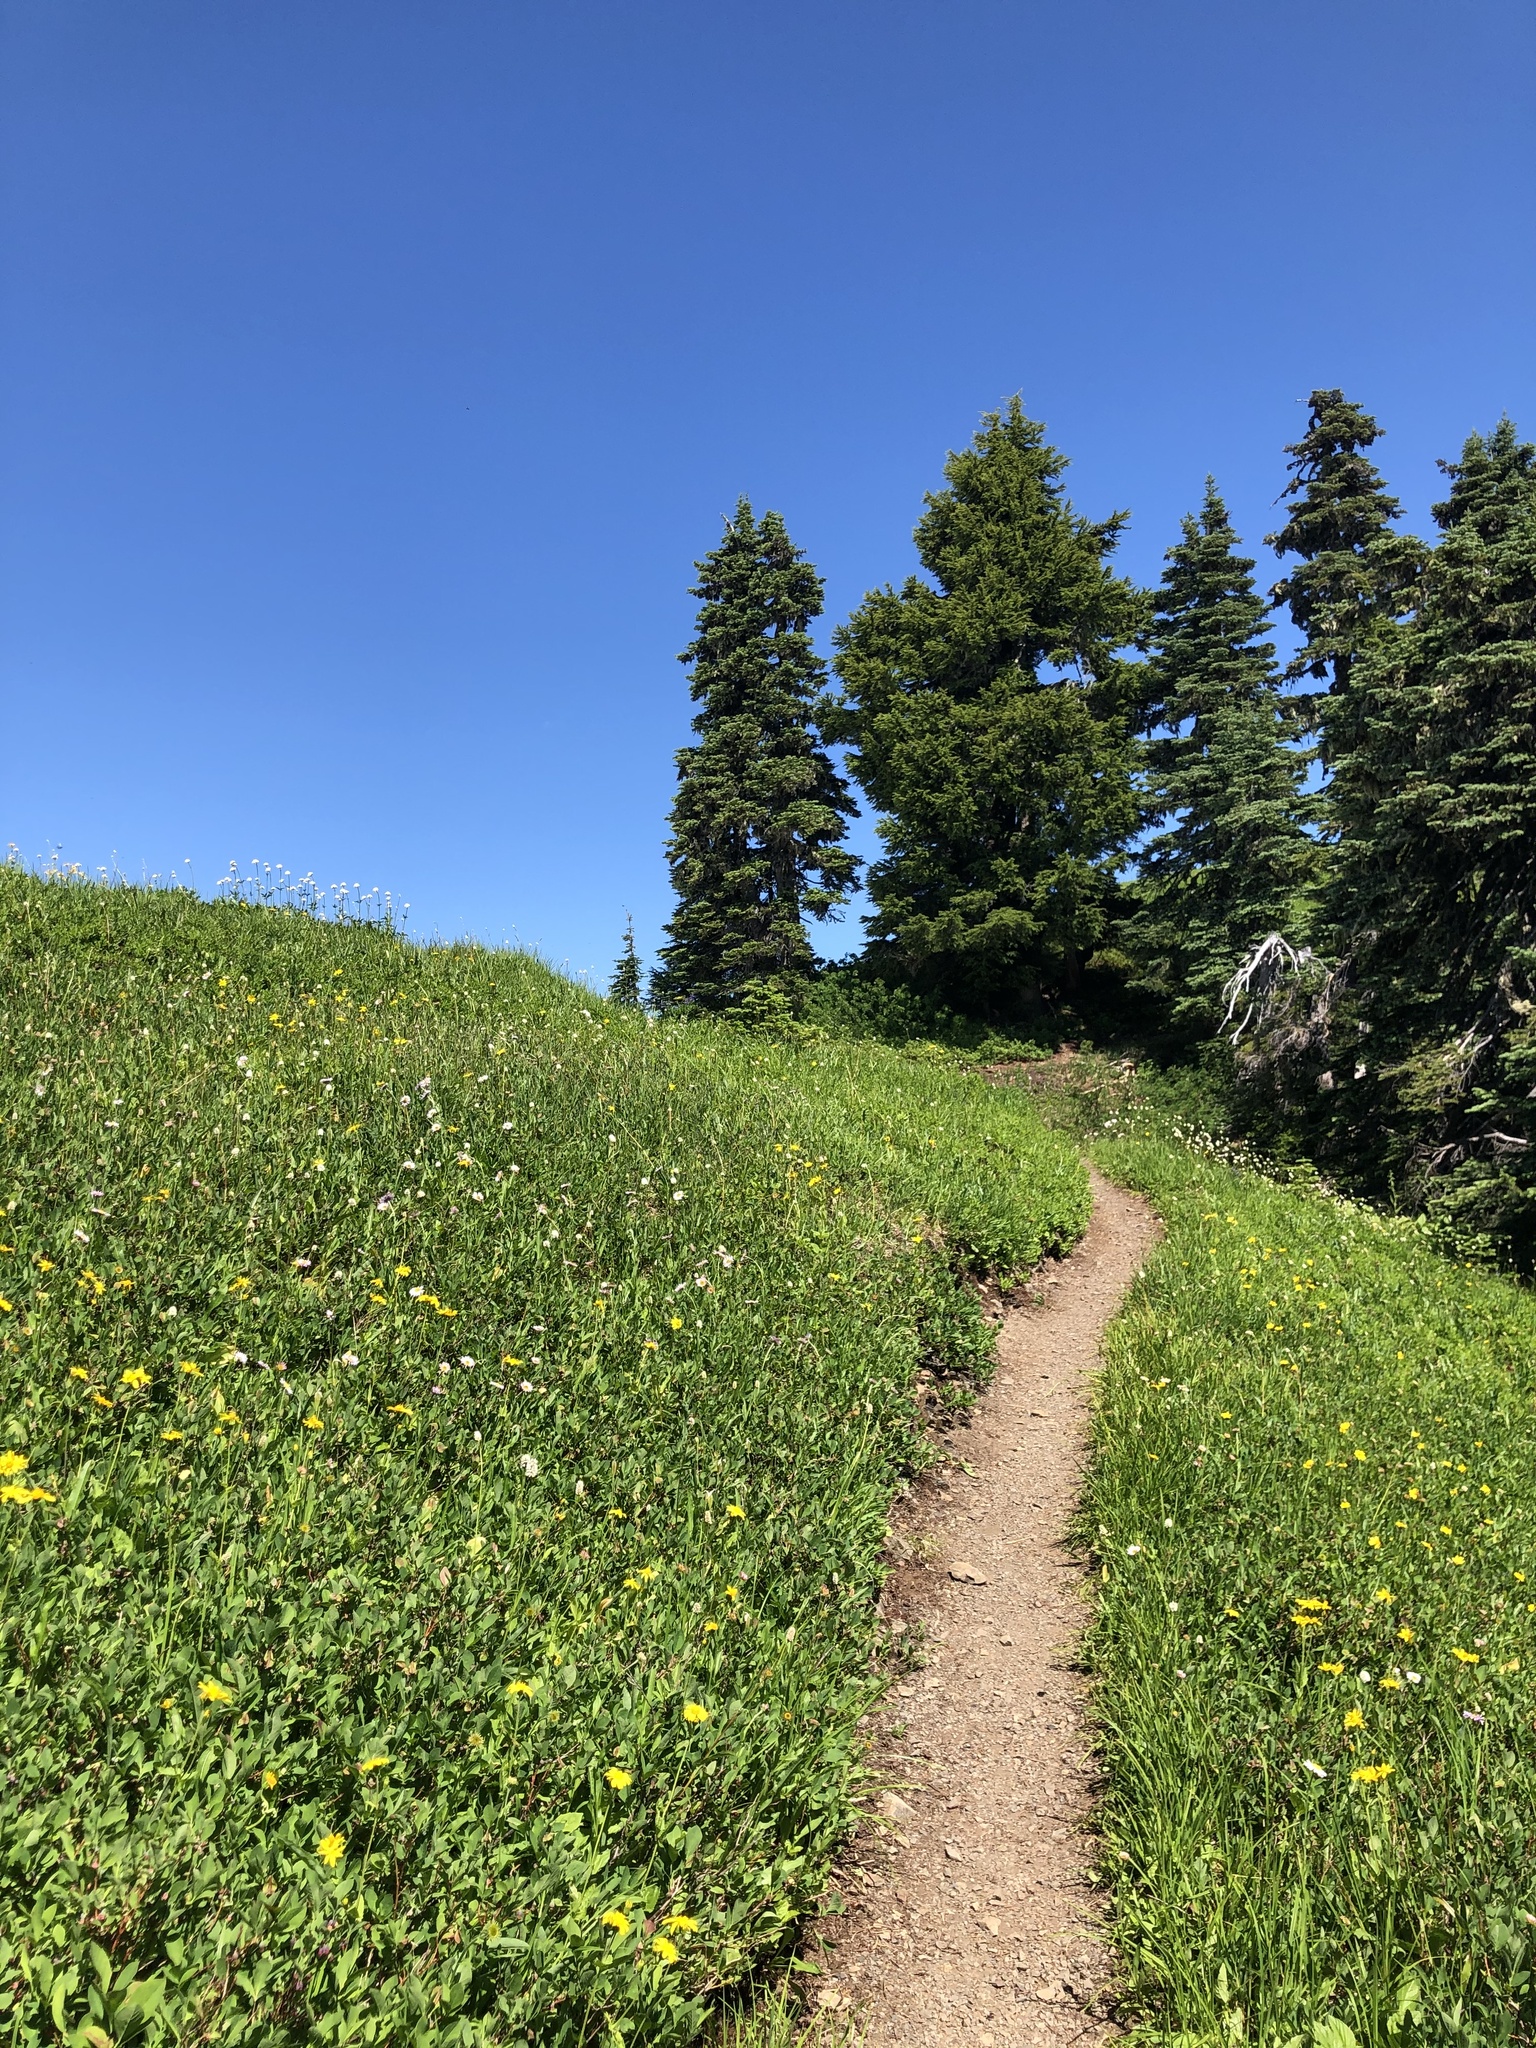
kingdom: Plantae
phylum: Tracheophyta
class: Pinopsida
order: Pinales
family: Pinaceae
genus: Abies
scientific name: Abies lasiocarpa
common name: Subalpine fir
